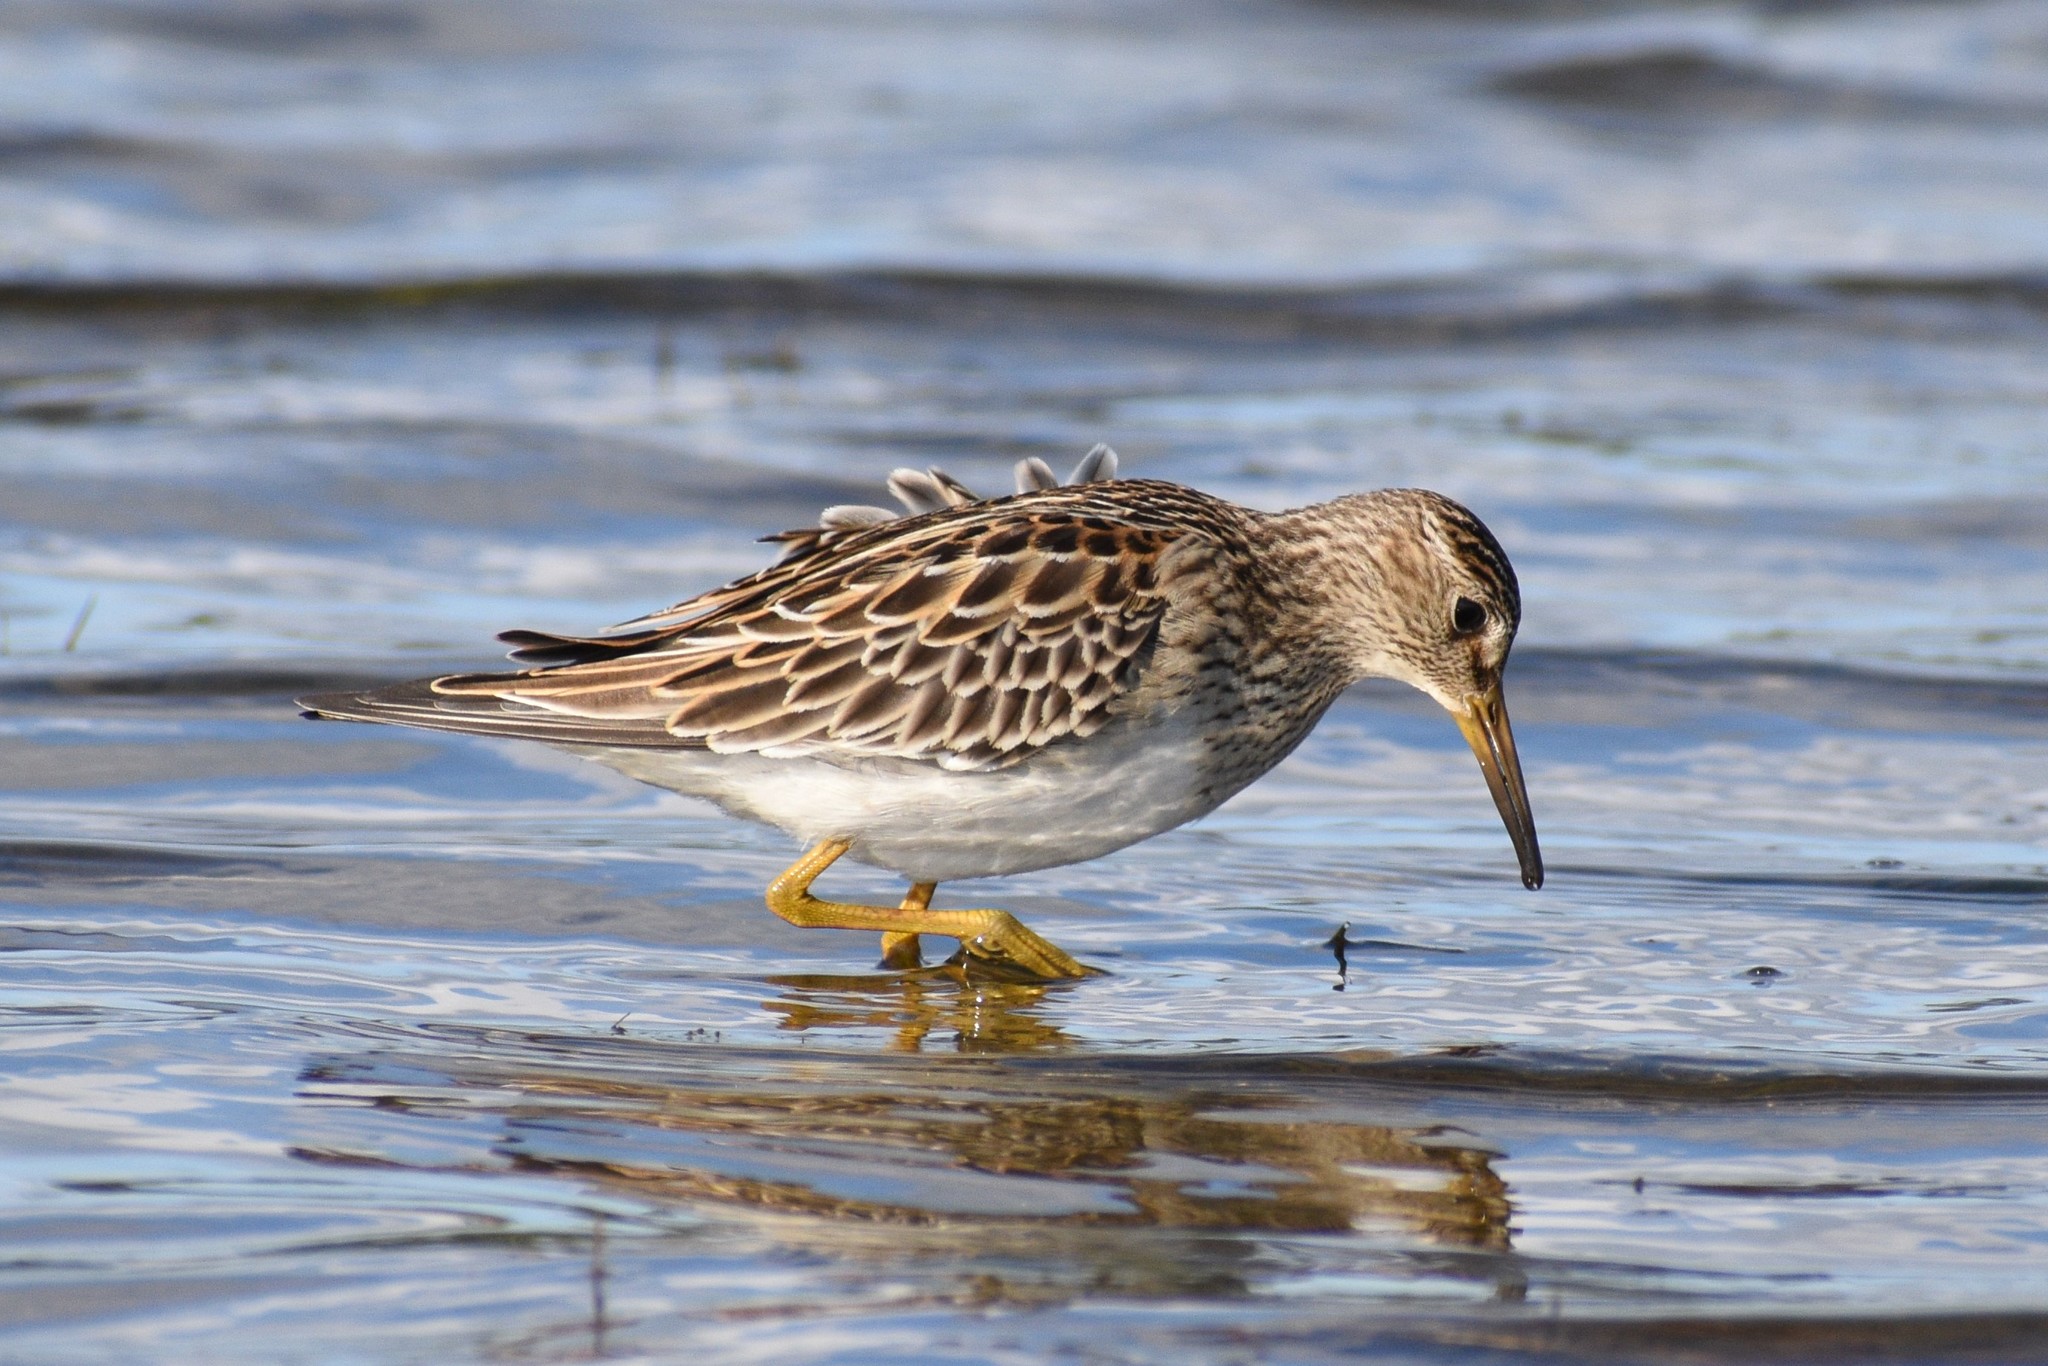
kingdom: Animalia
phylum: Chordata
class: Aves
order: Charadriiformes
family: Scolopacidae
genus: Calidris
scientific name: Calidris melanotos
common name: Pectoral sandpiper
